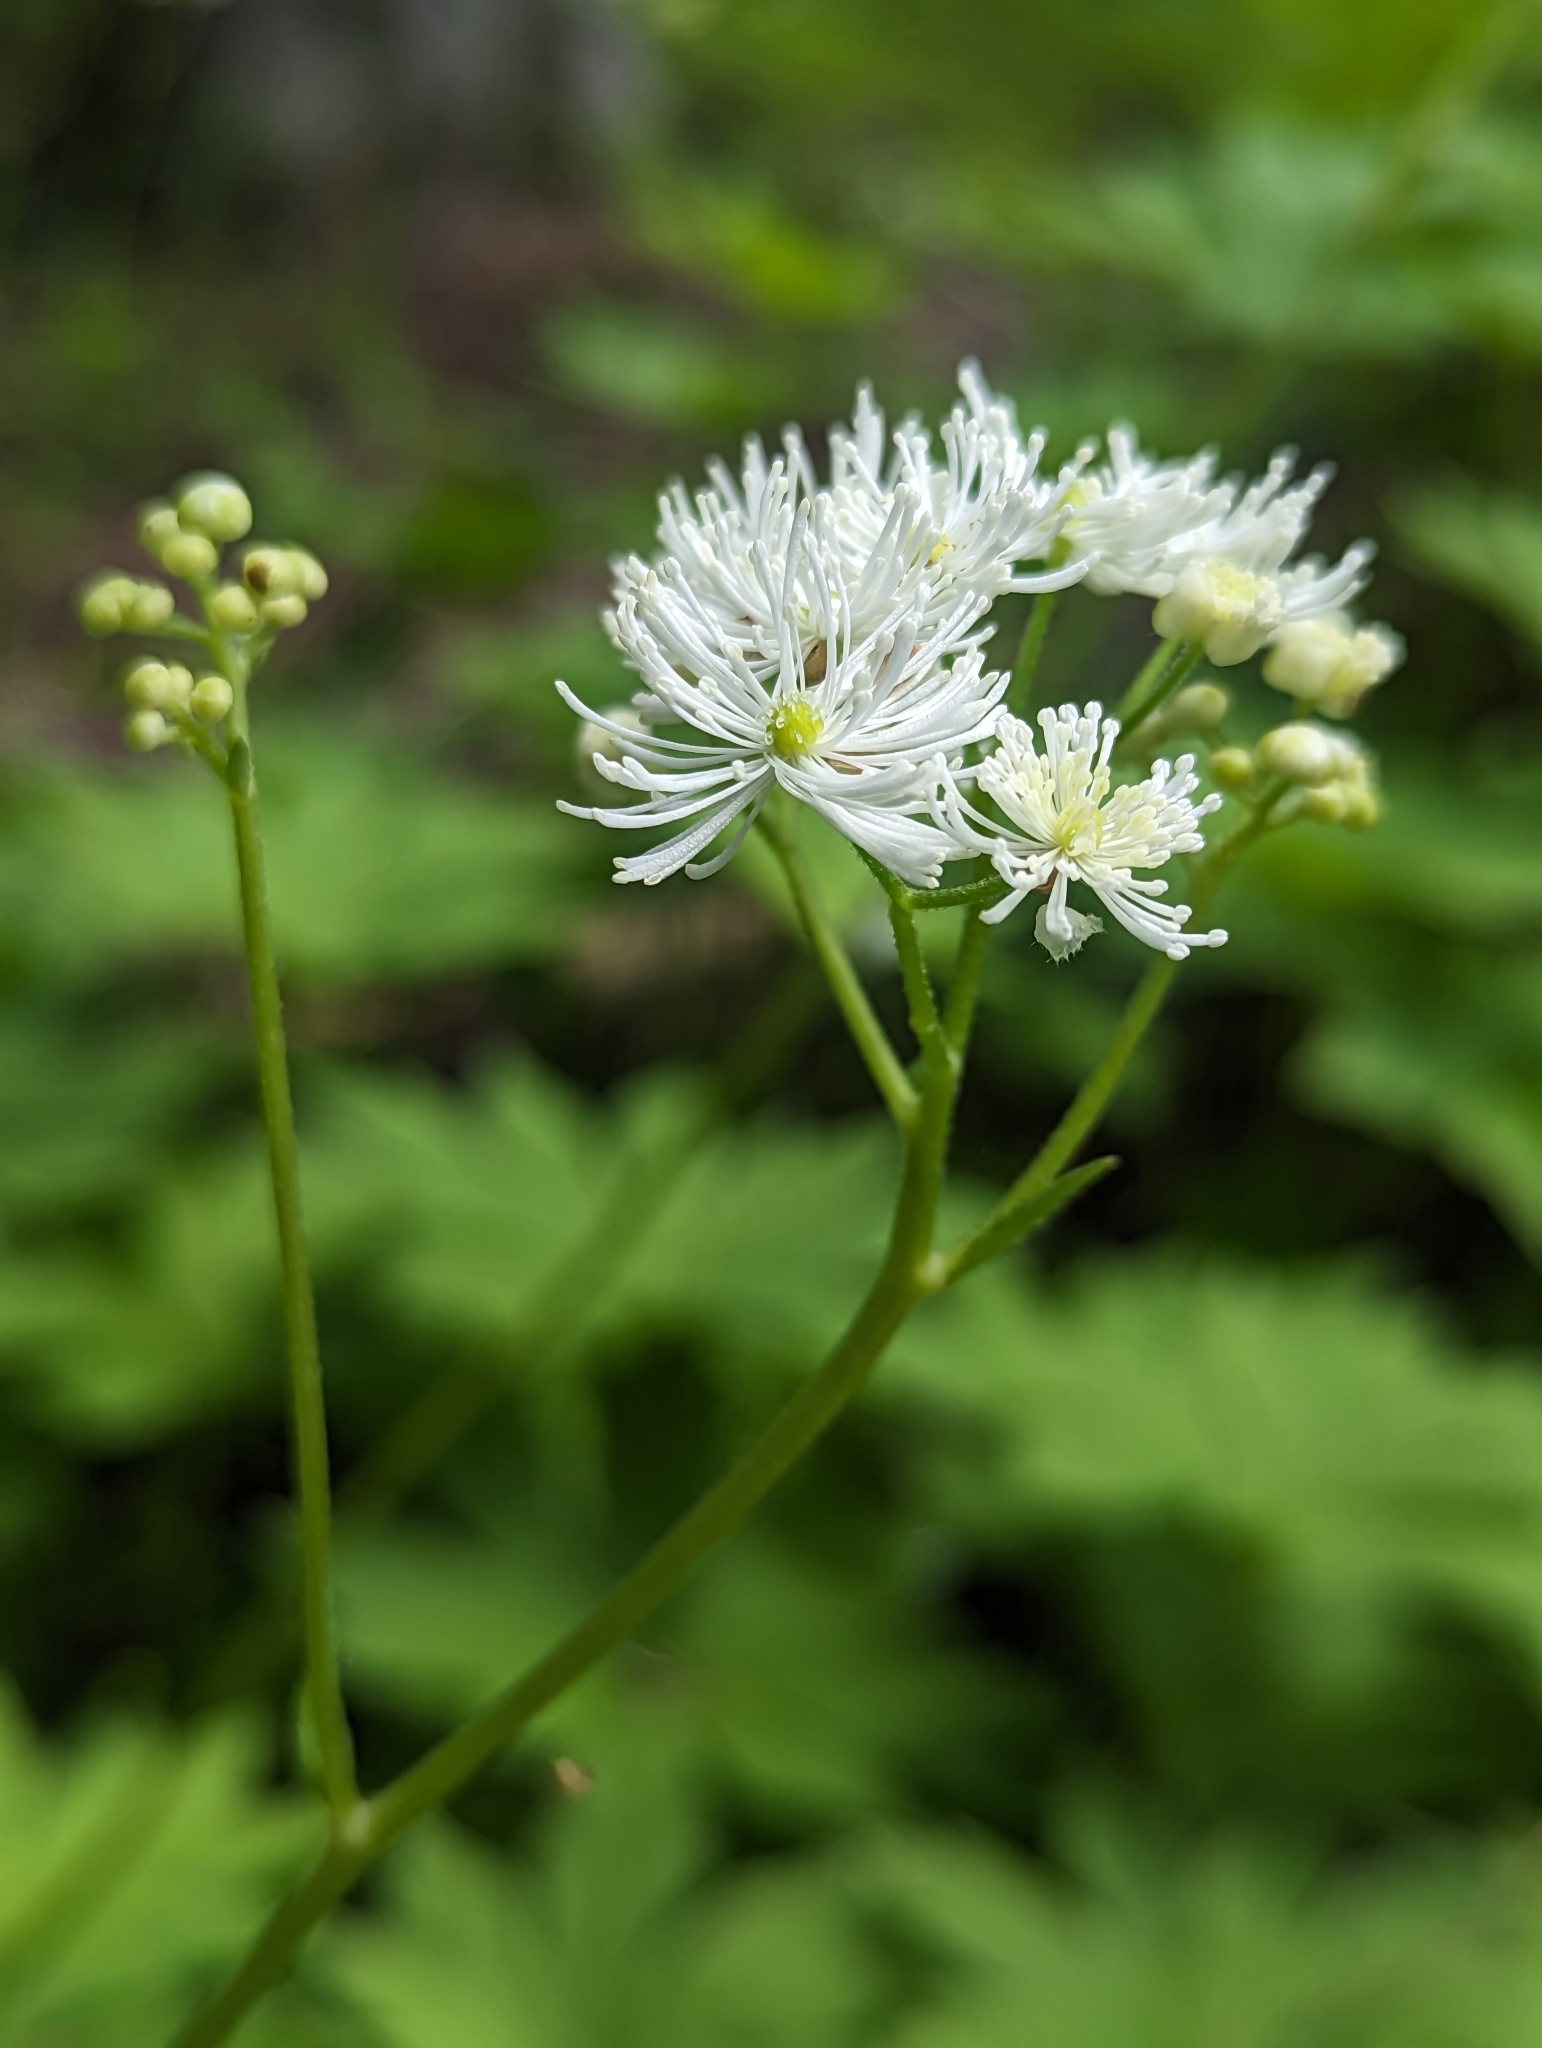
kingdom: Plantae
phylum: Tracheophyta
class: Magnoliopsida
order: Ranunculales
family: Ranunculaceae
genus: Trautvetteria
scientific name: Trautvetteria carolinensis
